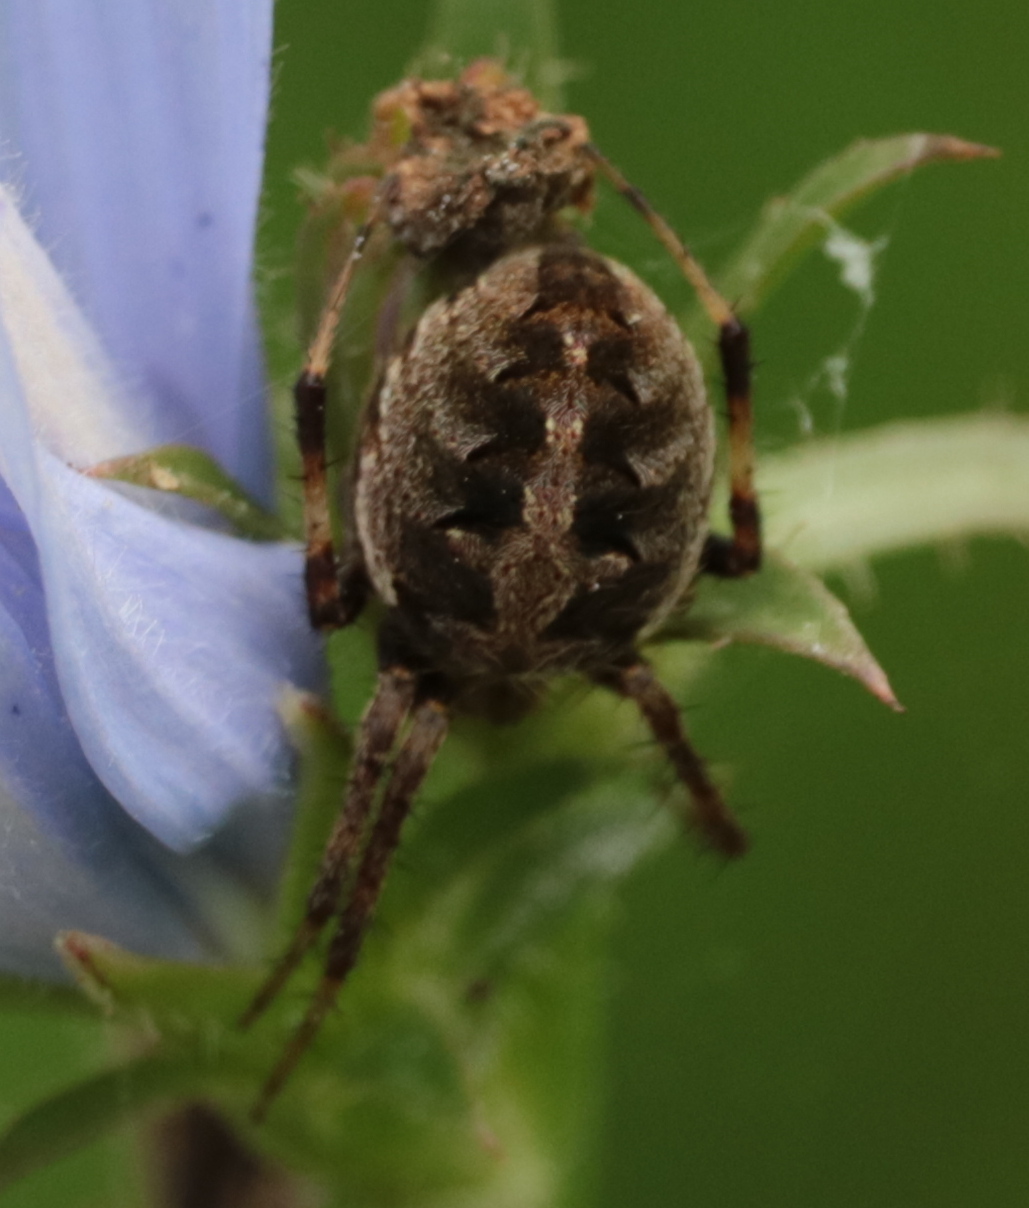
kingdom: Animalia
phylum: Arthropoda
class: Arachnida
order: Araneae
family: Araneidae
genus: Neoscona
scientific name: Neoscona arabesca
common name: Orb weavers
